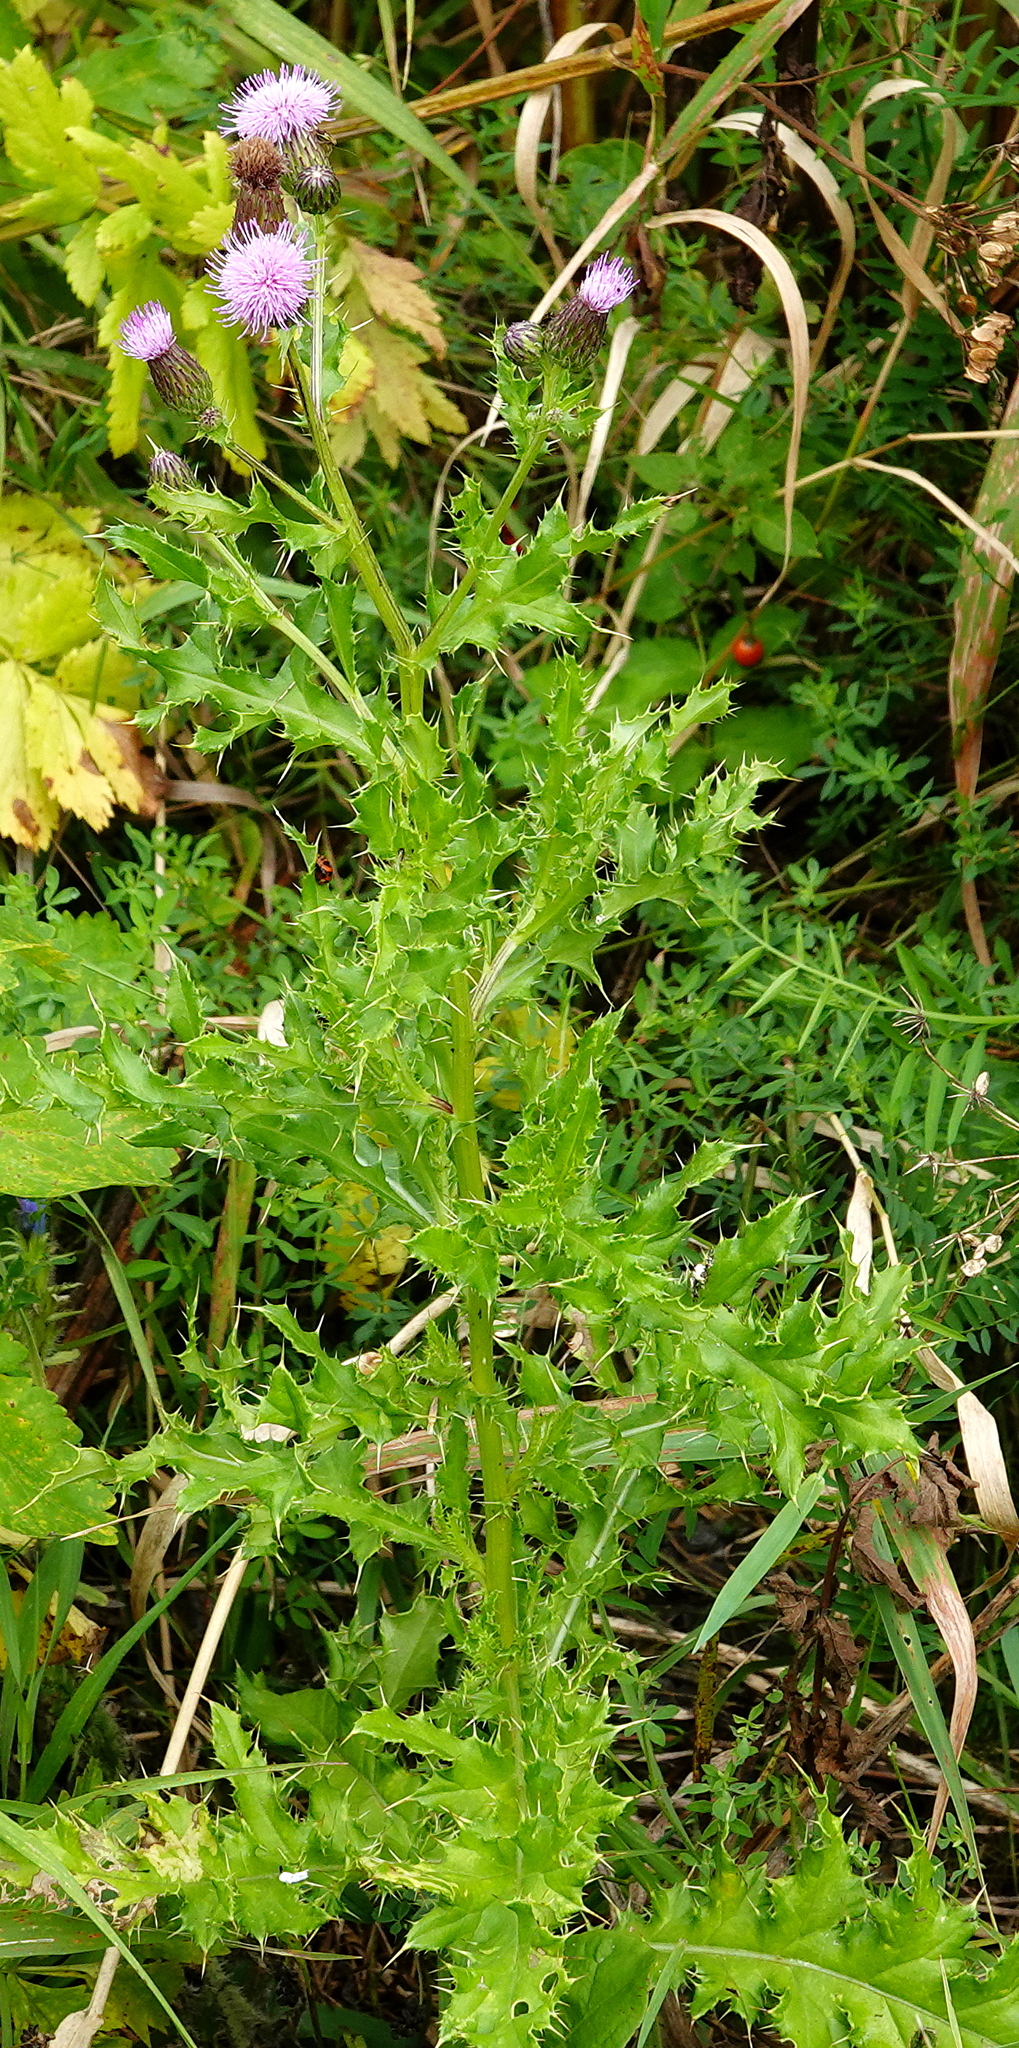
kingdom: Plantae
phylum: Tracheophyta
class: Magnoliopsida
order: Asterales
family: Asteraceae
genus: Cirsium
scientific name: Cirsium arvense
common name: Creeping thistle
